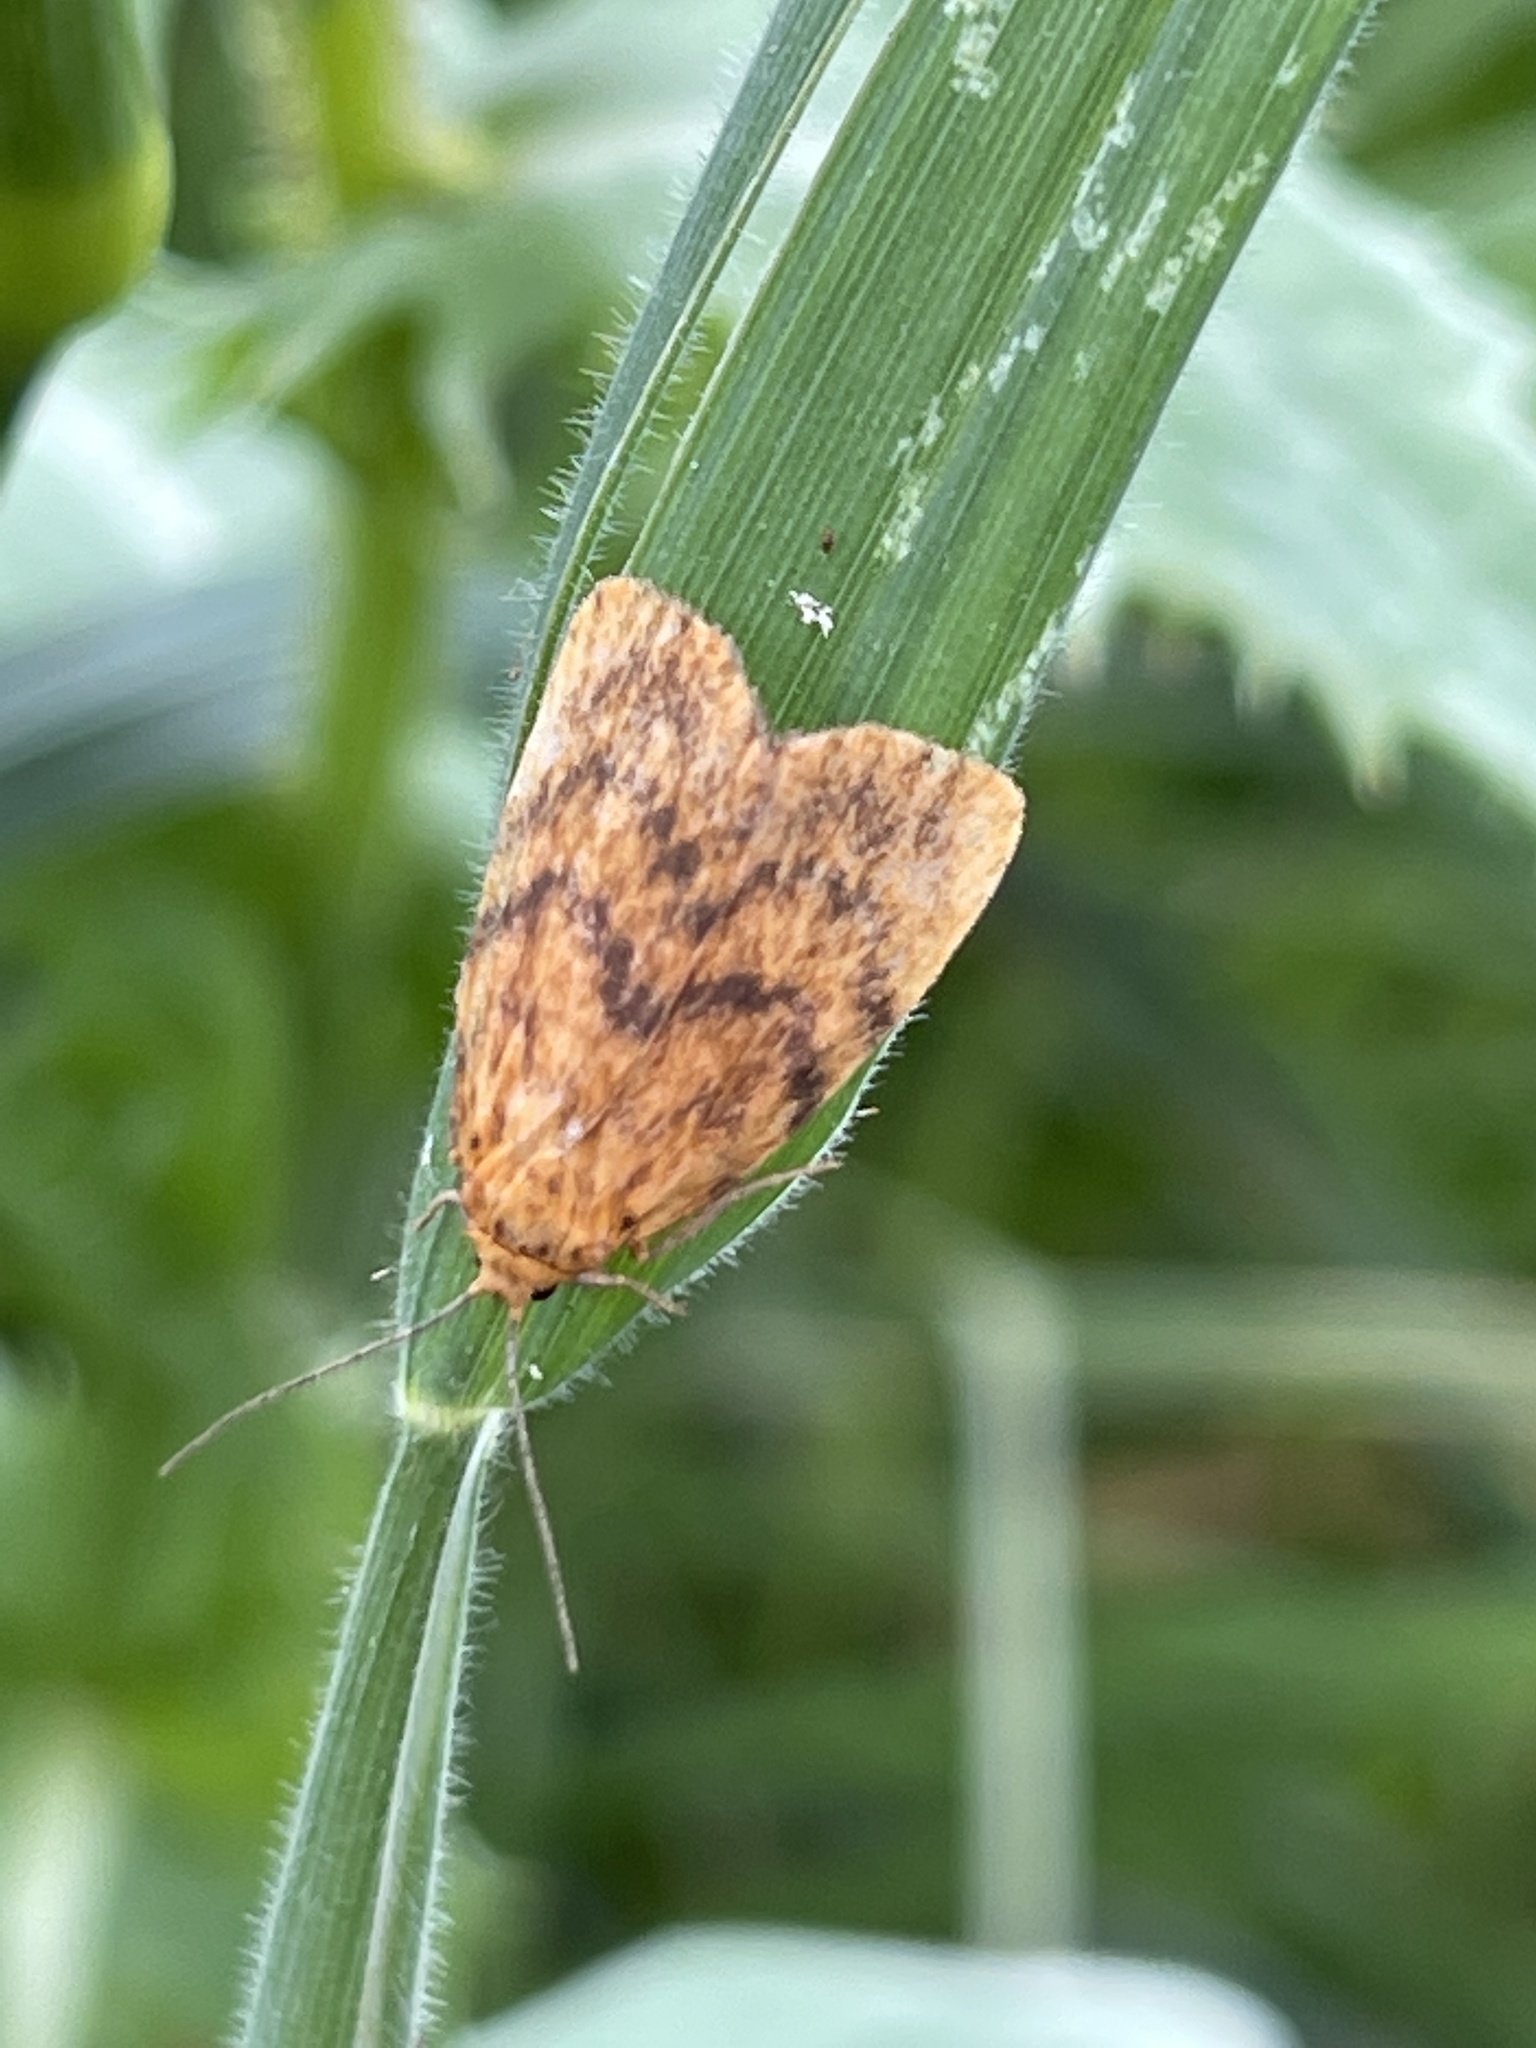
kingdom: Animalia
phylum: Arthropoda
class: Insecta
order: Lepidoptera
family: Erebidae
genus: Cyme
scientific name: Cyme structa
